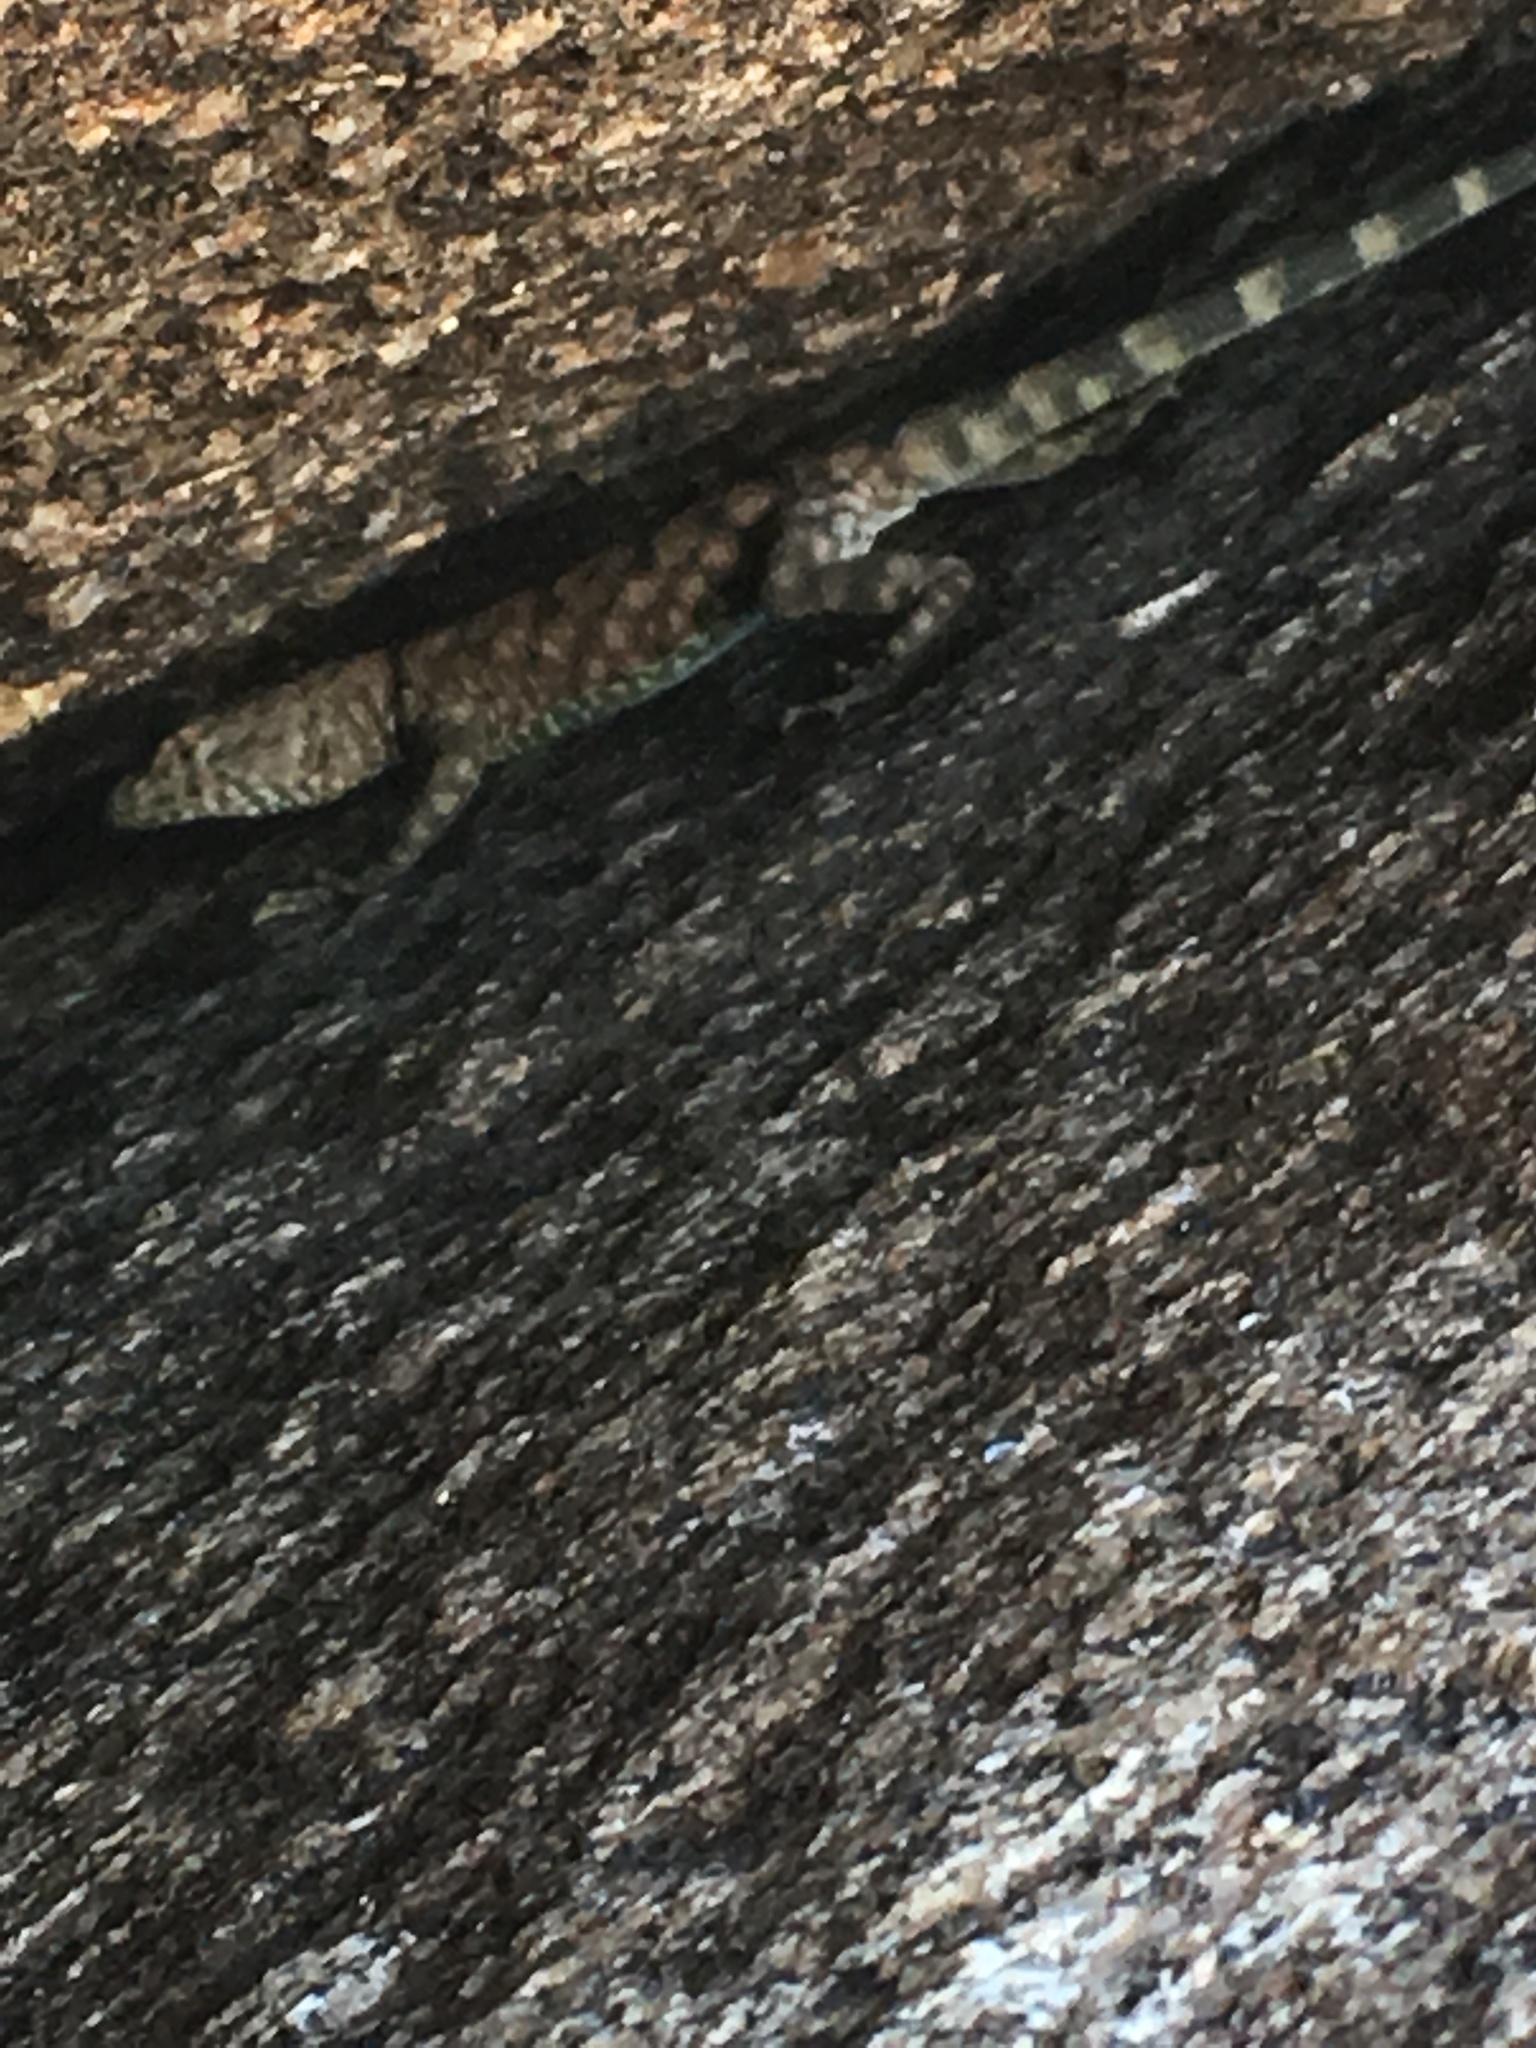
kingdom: Animalia
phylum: Chordata
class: Squamata
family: Phrynosomatidae
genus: Petrosaurus
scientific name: Petrosaurus mearnsi
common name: Banded rock lizard
